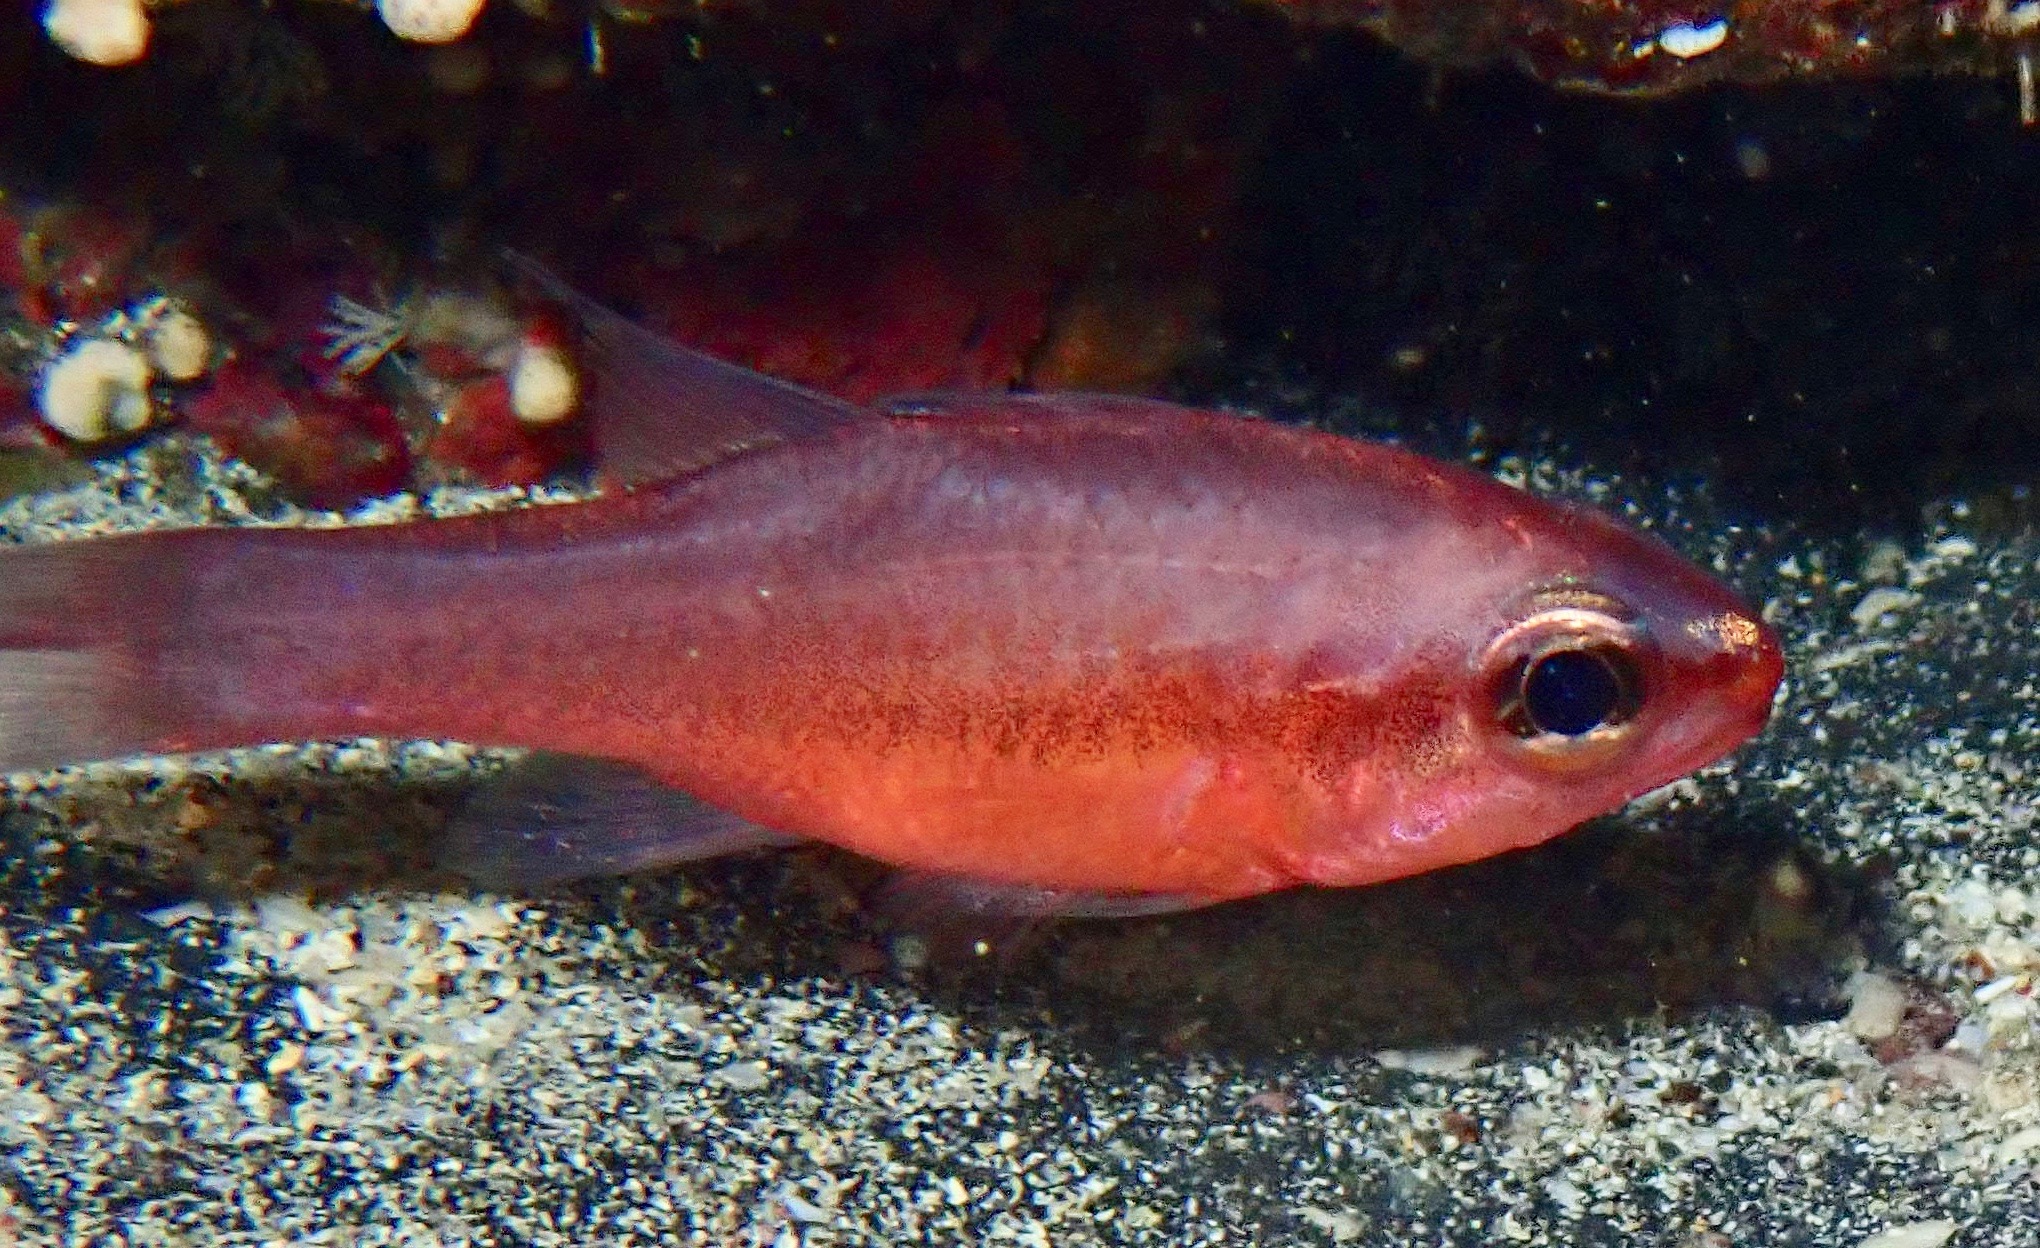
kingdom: Animalia
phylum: Chordata
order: Perciformes
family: Apogonidae
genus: Apogon
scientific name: Apogon atradorsatus
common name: Blacktip cardinalfish
